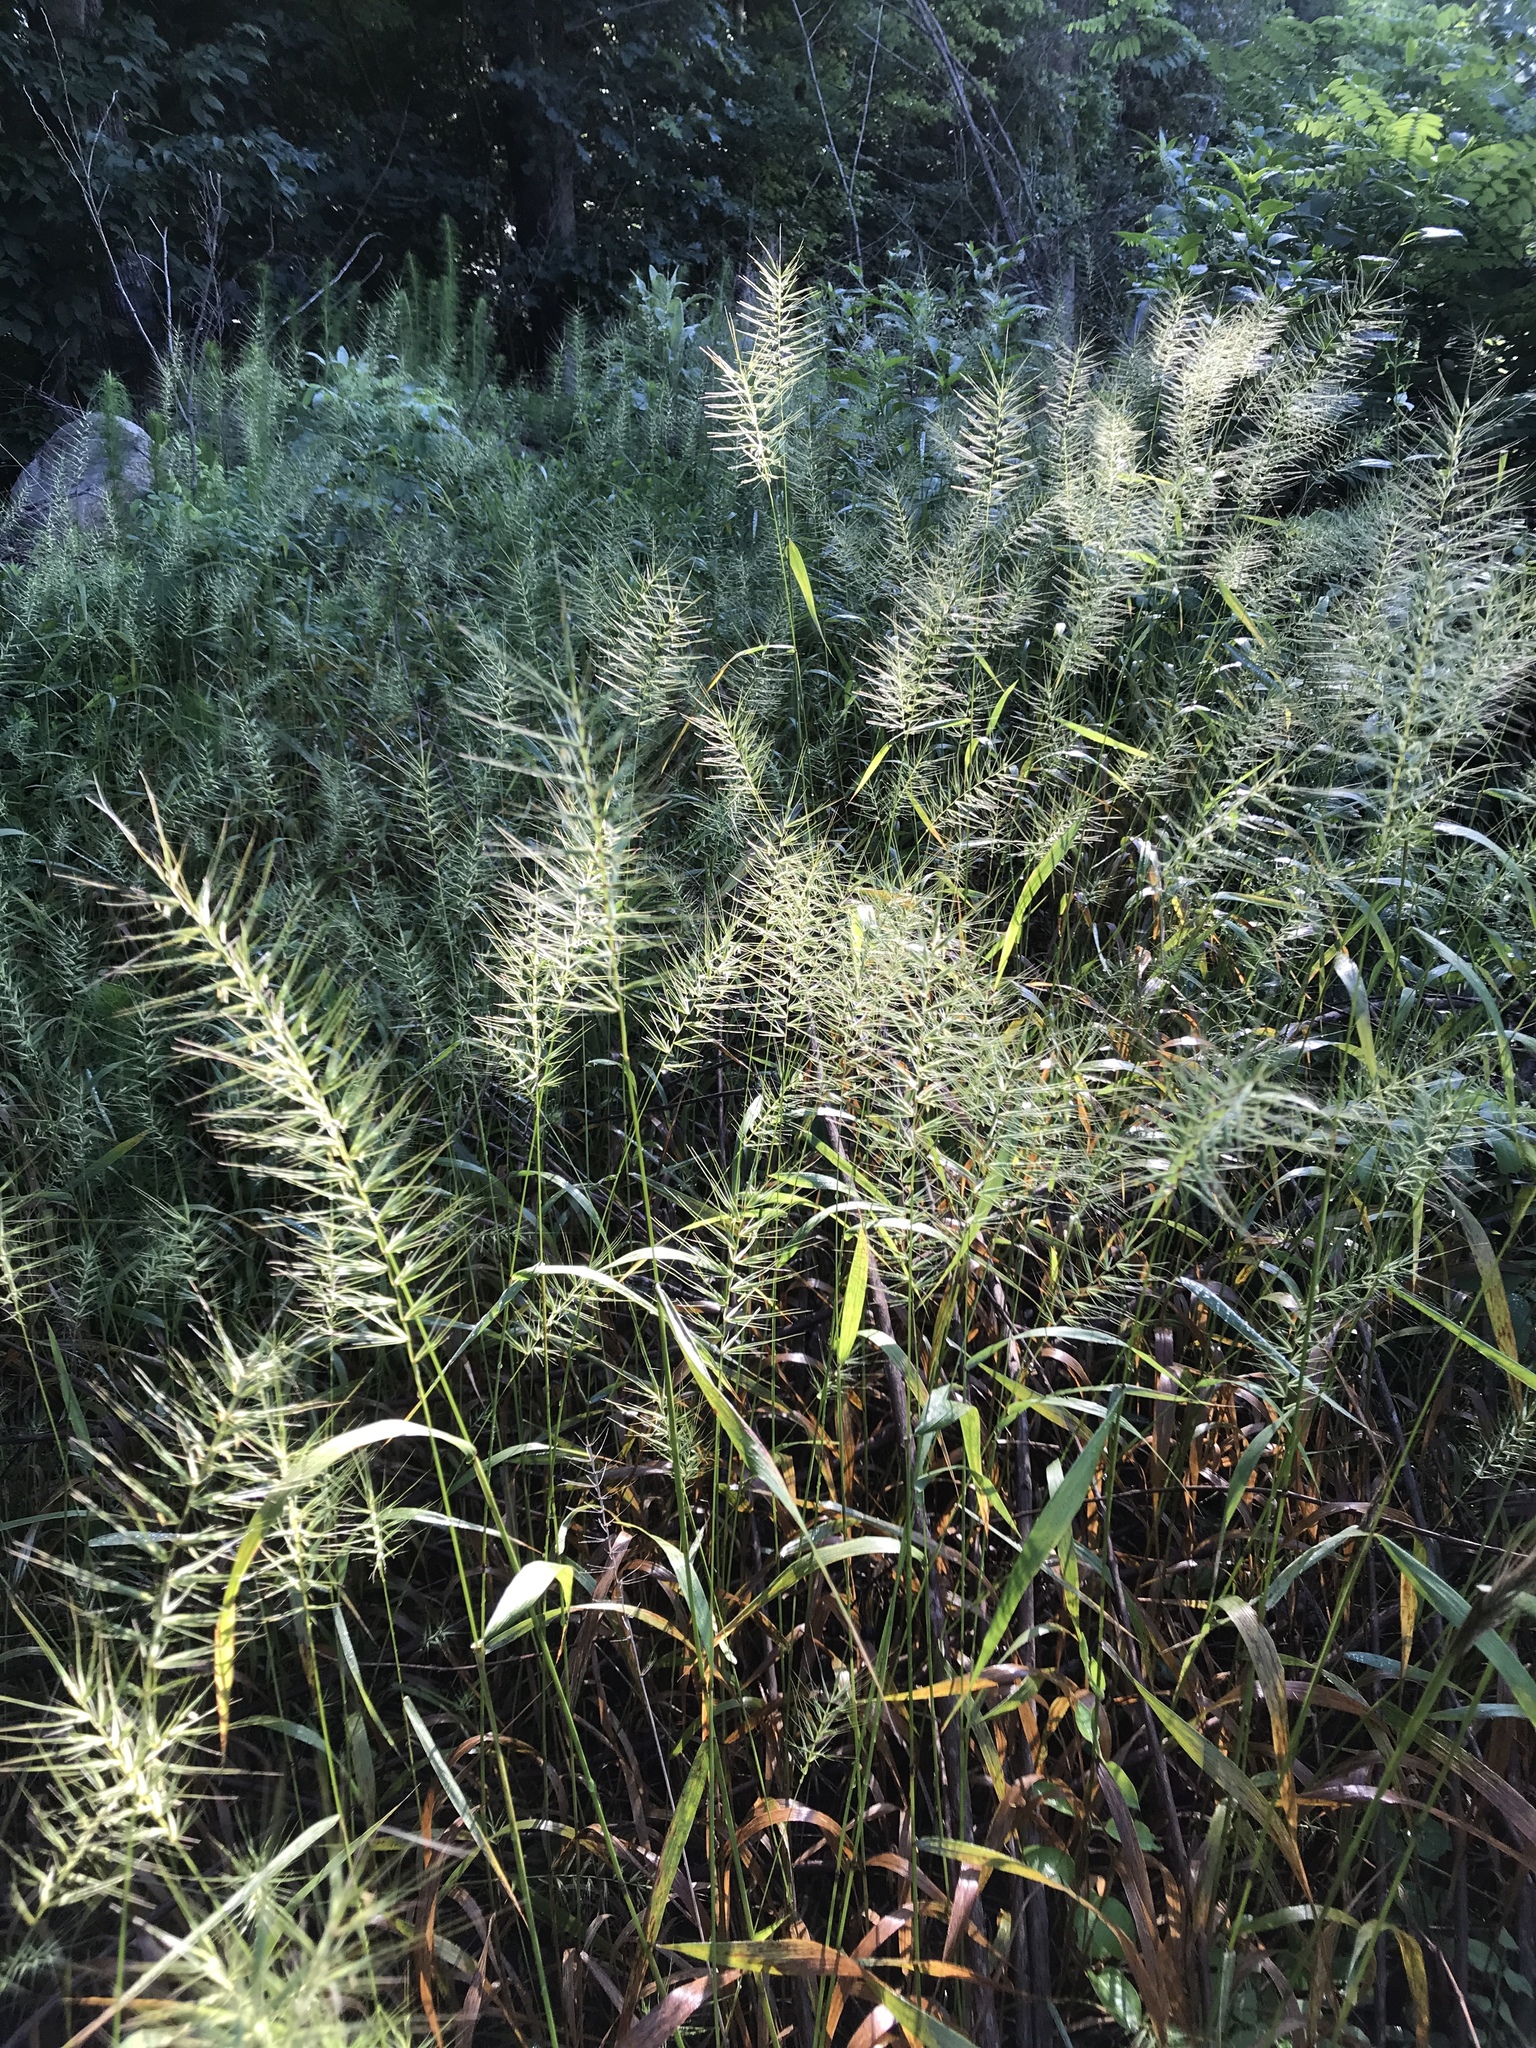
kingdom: Plantae
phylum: Tracheophyta
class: Liliopsida
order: Poales
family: Poaceae
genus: Elymus
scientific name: Elymus hystrix
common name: Bottlebrush grass
